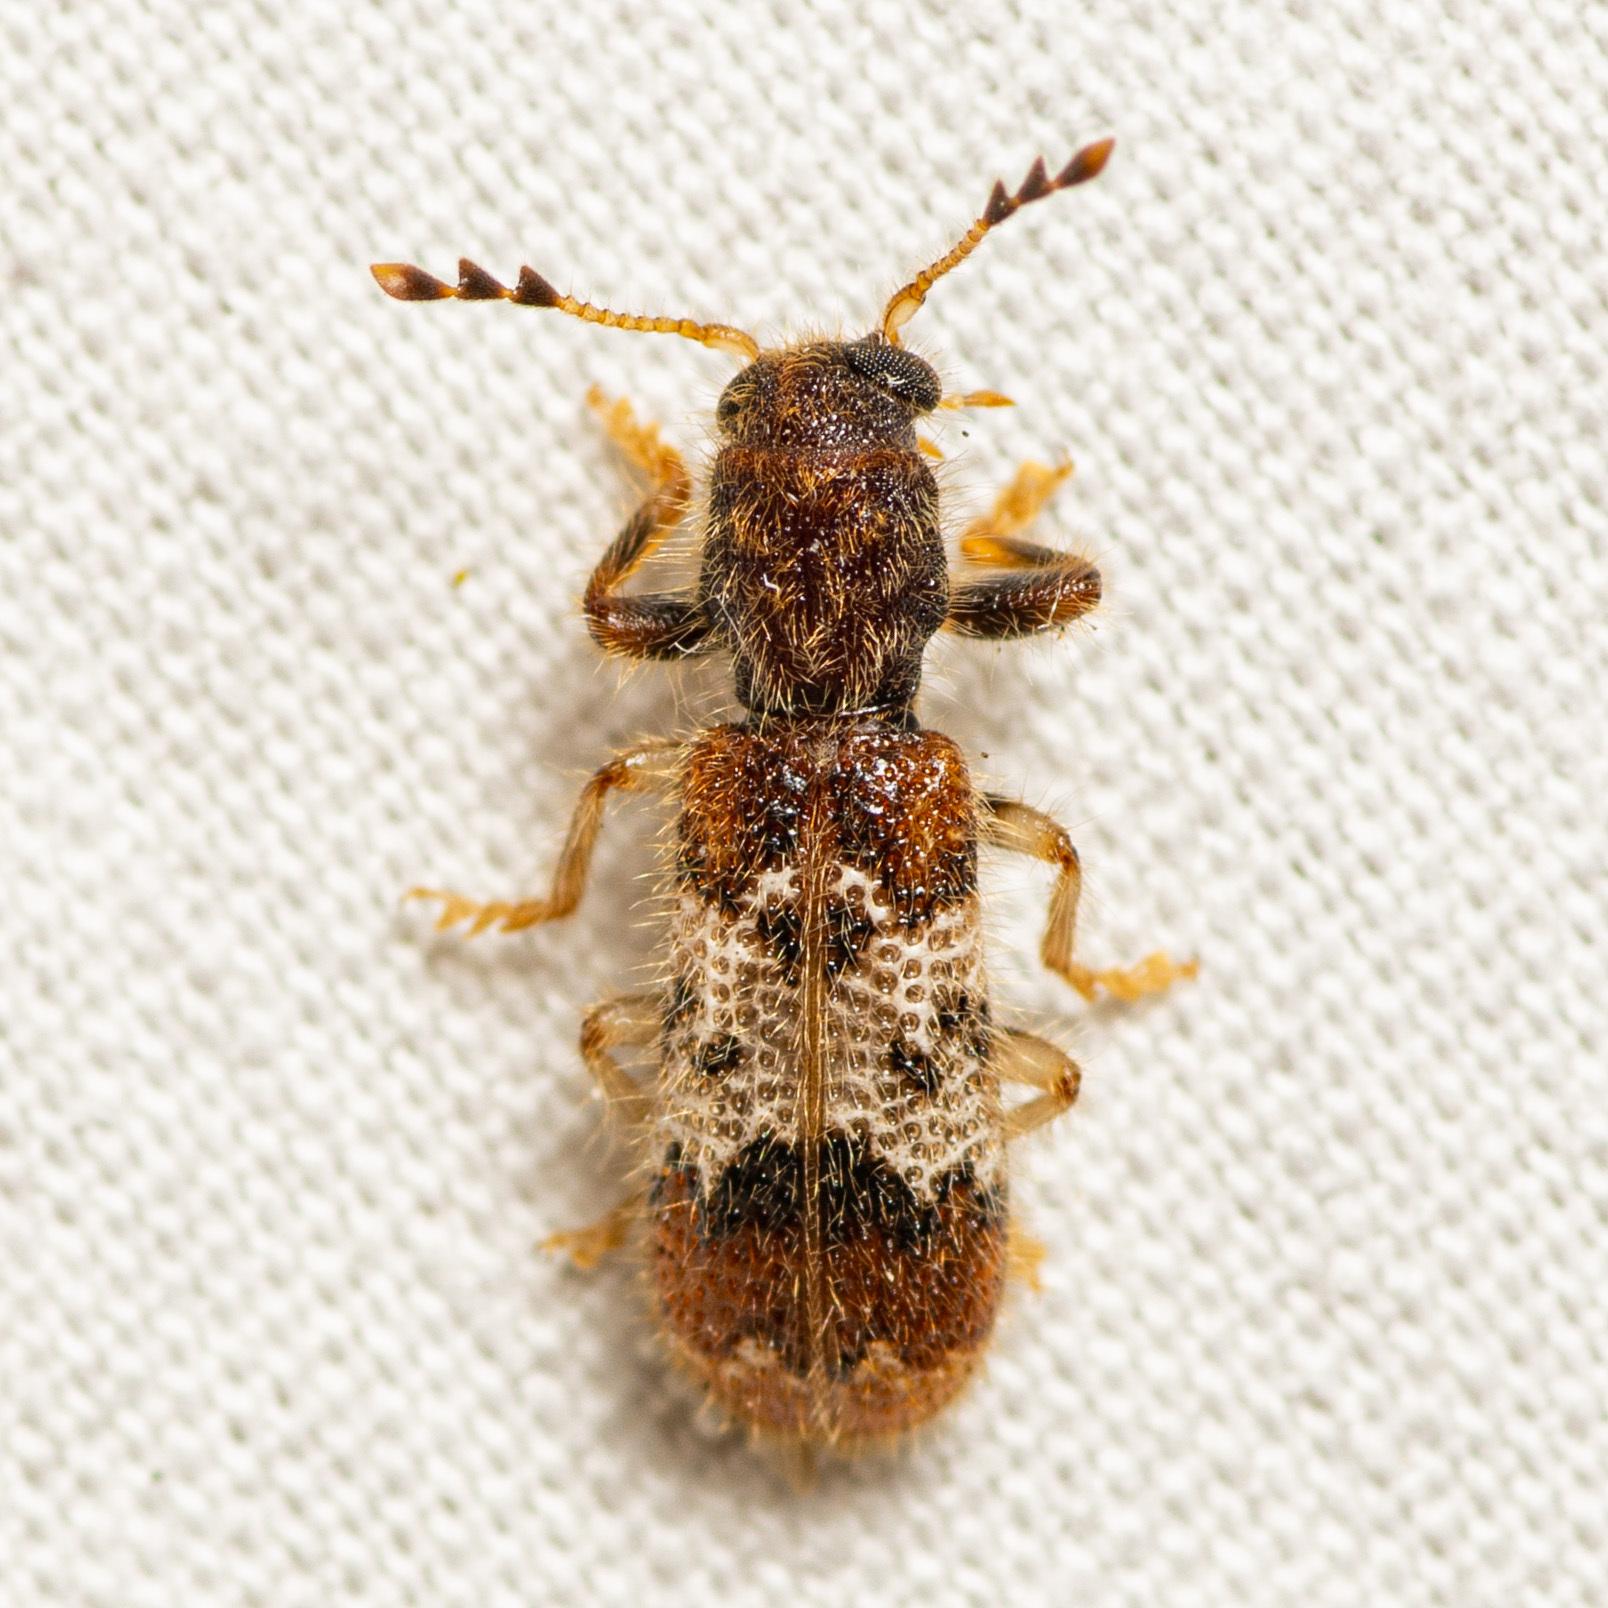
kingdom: Animalia
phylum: Arthropoda
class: Insecta
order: Coleoptera
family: Cleridae
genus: Pelonium
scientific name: Pelonium leucophaeum
